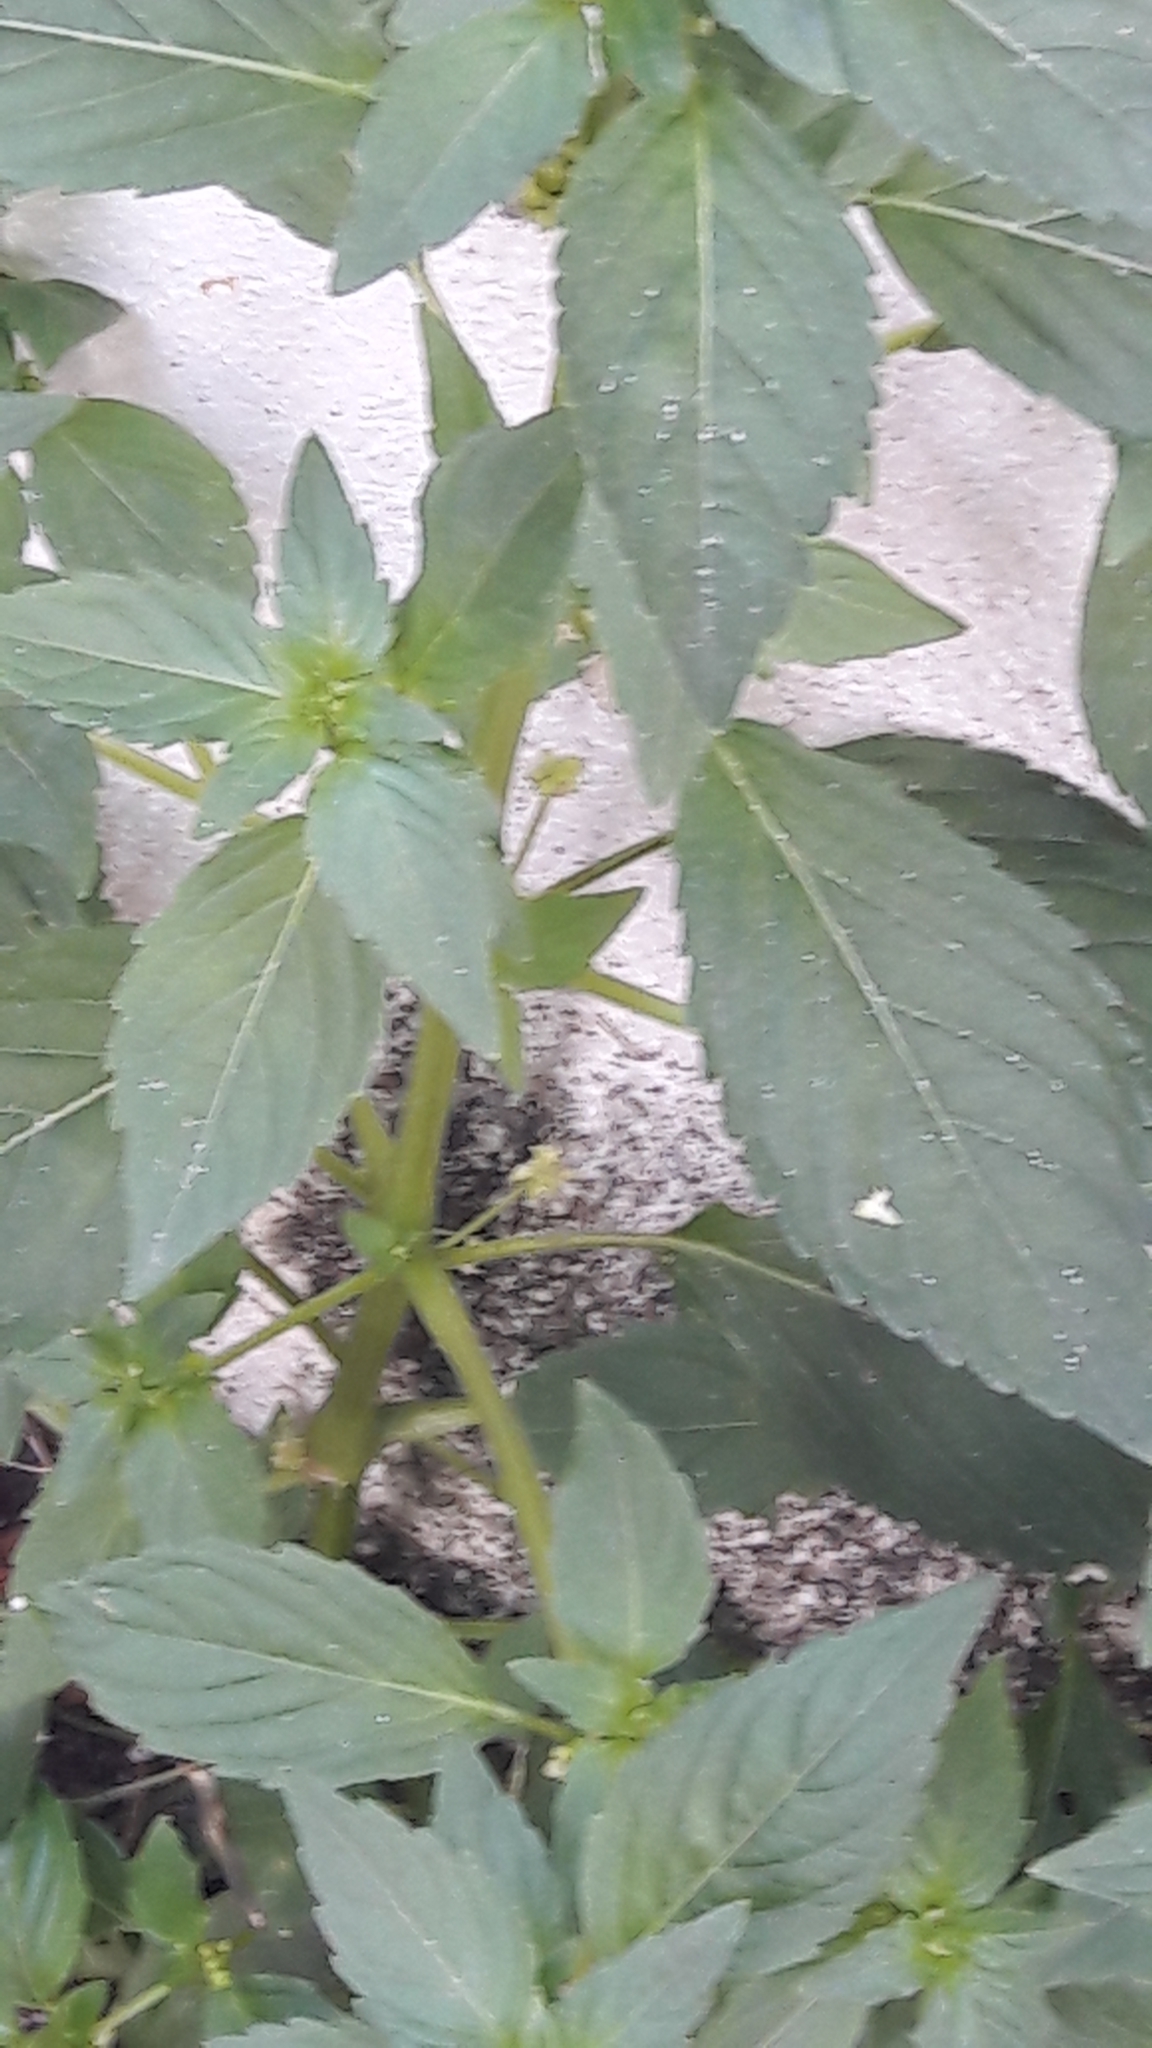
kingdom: Plantae
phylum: Tracheophyta
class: Magnoliopsida
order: Malpighiales
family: Euphorbiaceae
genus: Mercurialis
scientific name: Mercurialis annua
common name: Annual mercury
